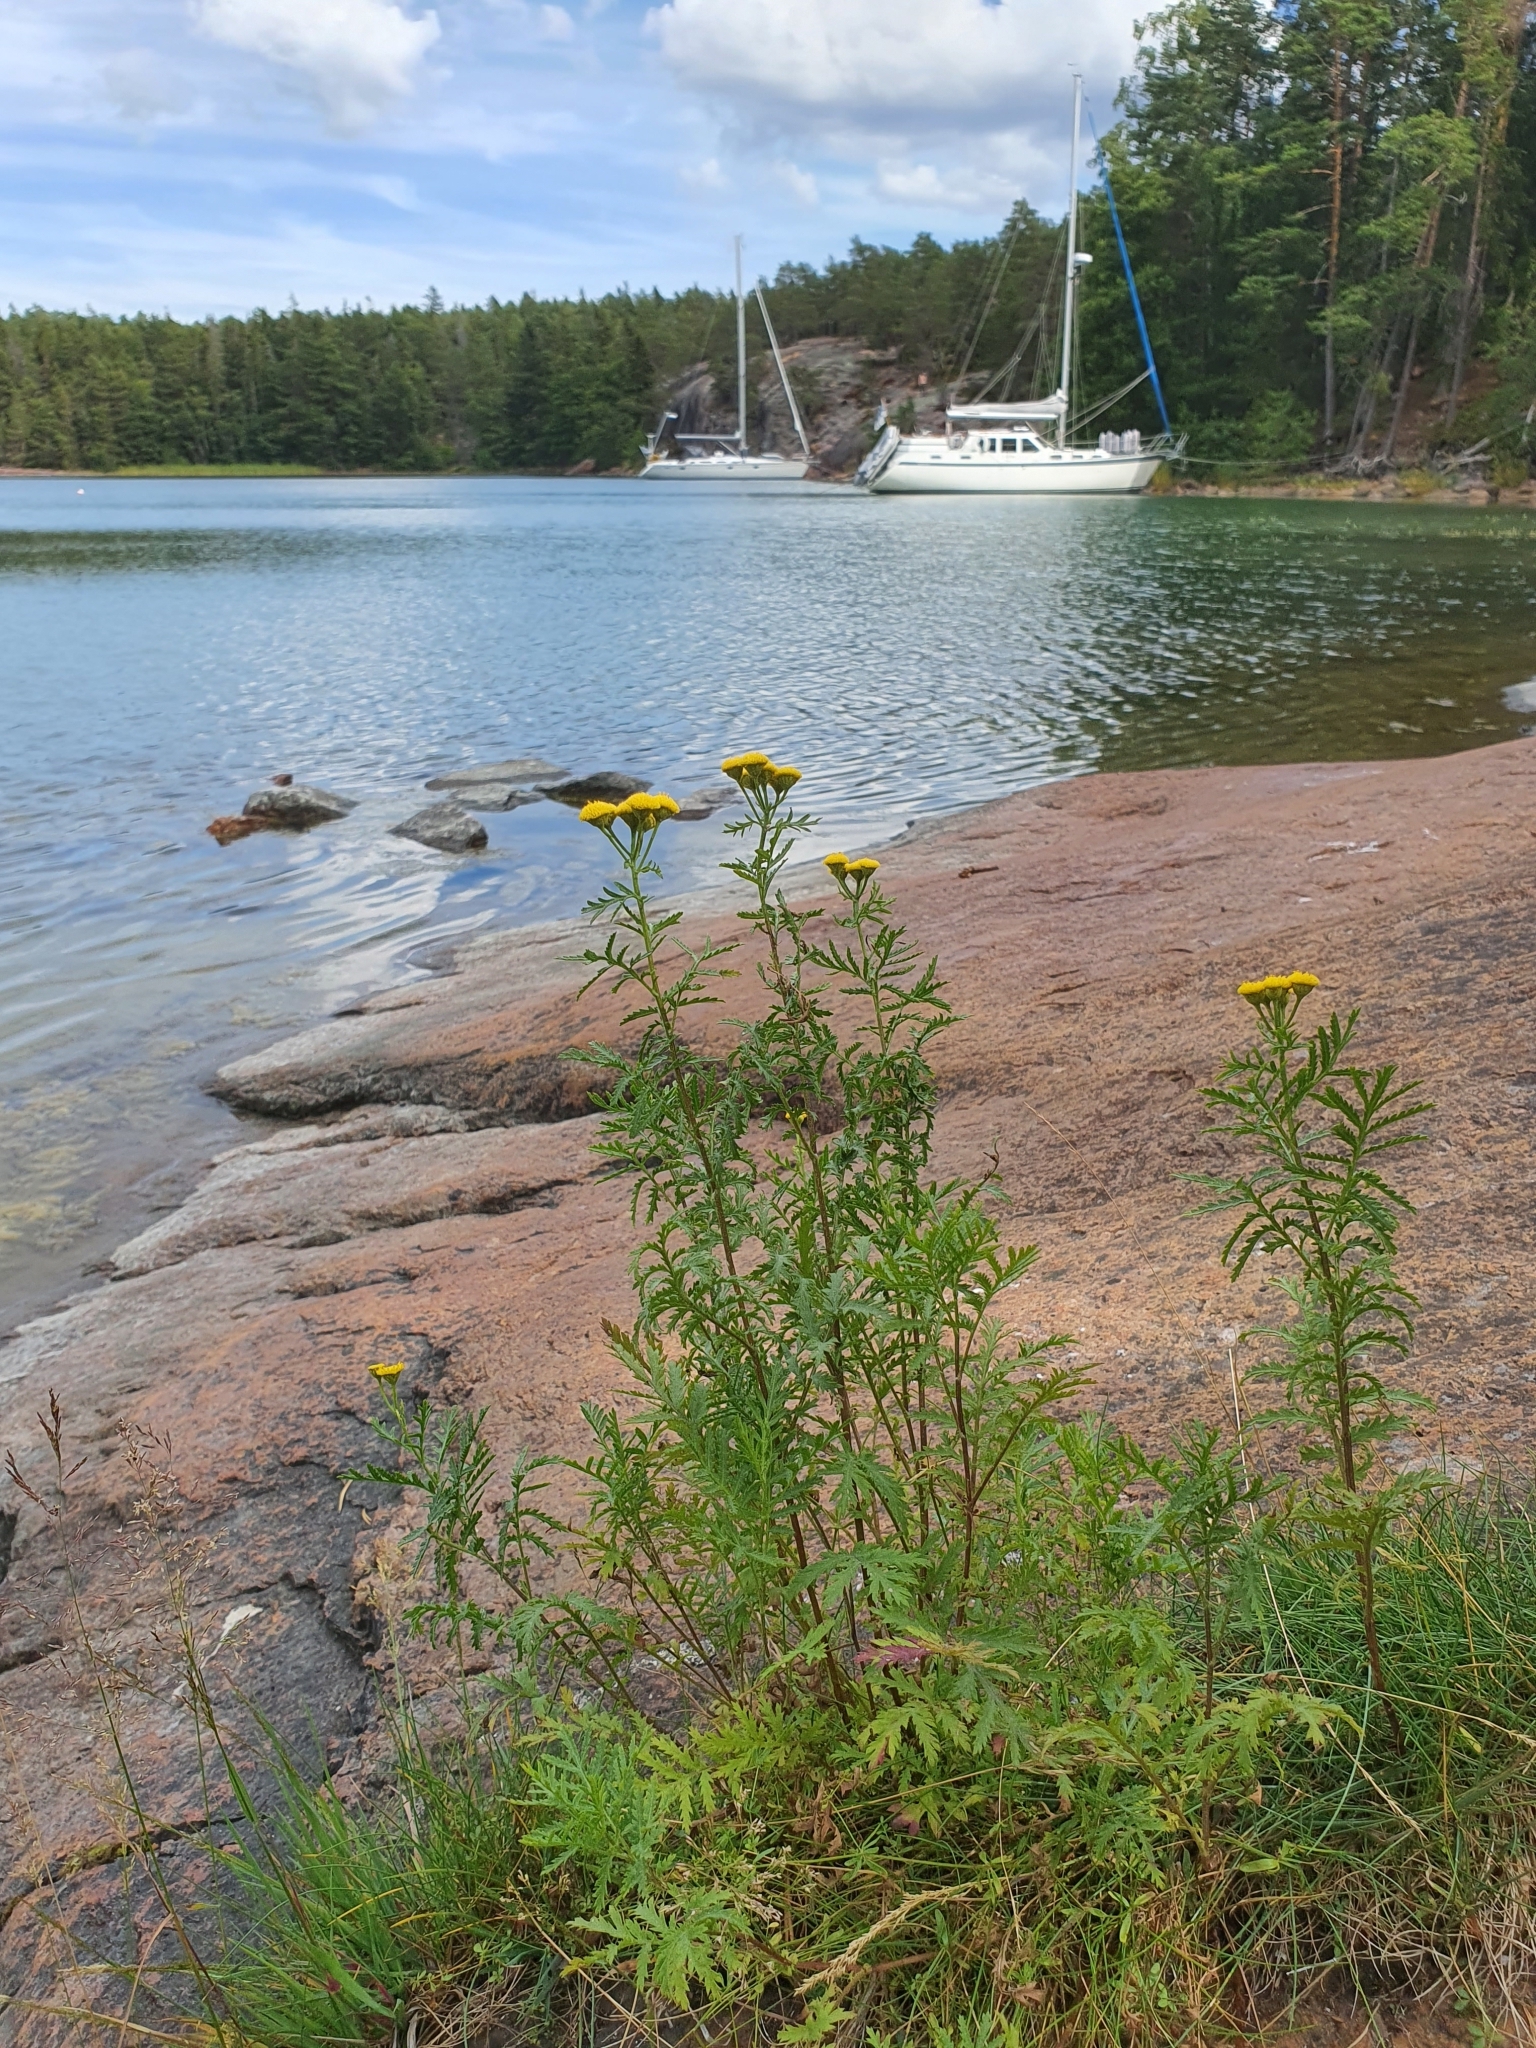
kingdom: Plantae
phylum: Tracheophyta
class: Magnoliopsida
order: Asterales
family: Asteraceae
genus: Tanacetum
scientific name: Tanacetum vulgare
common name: Common tansy
